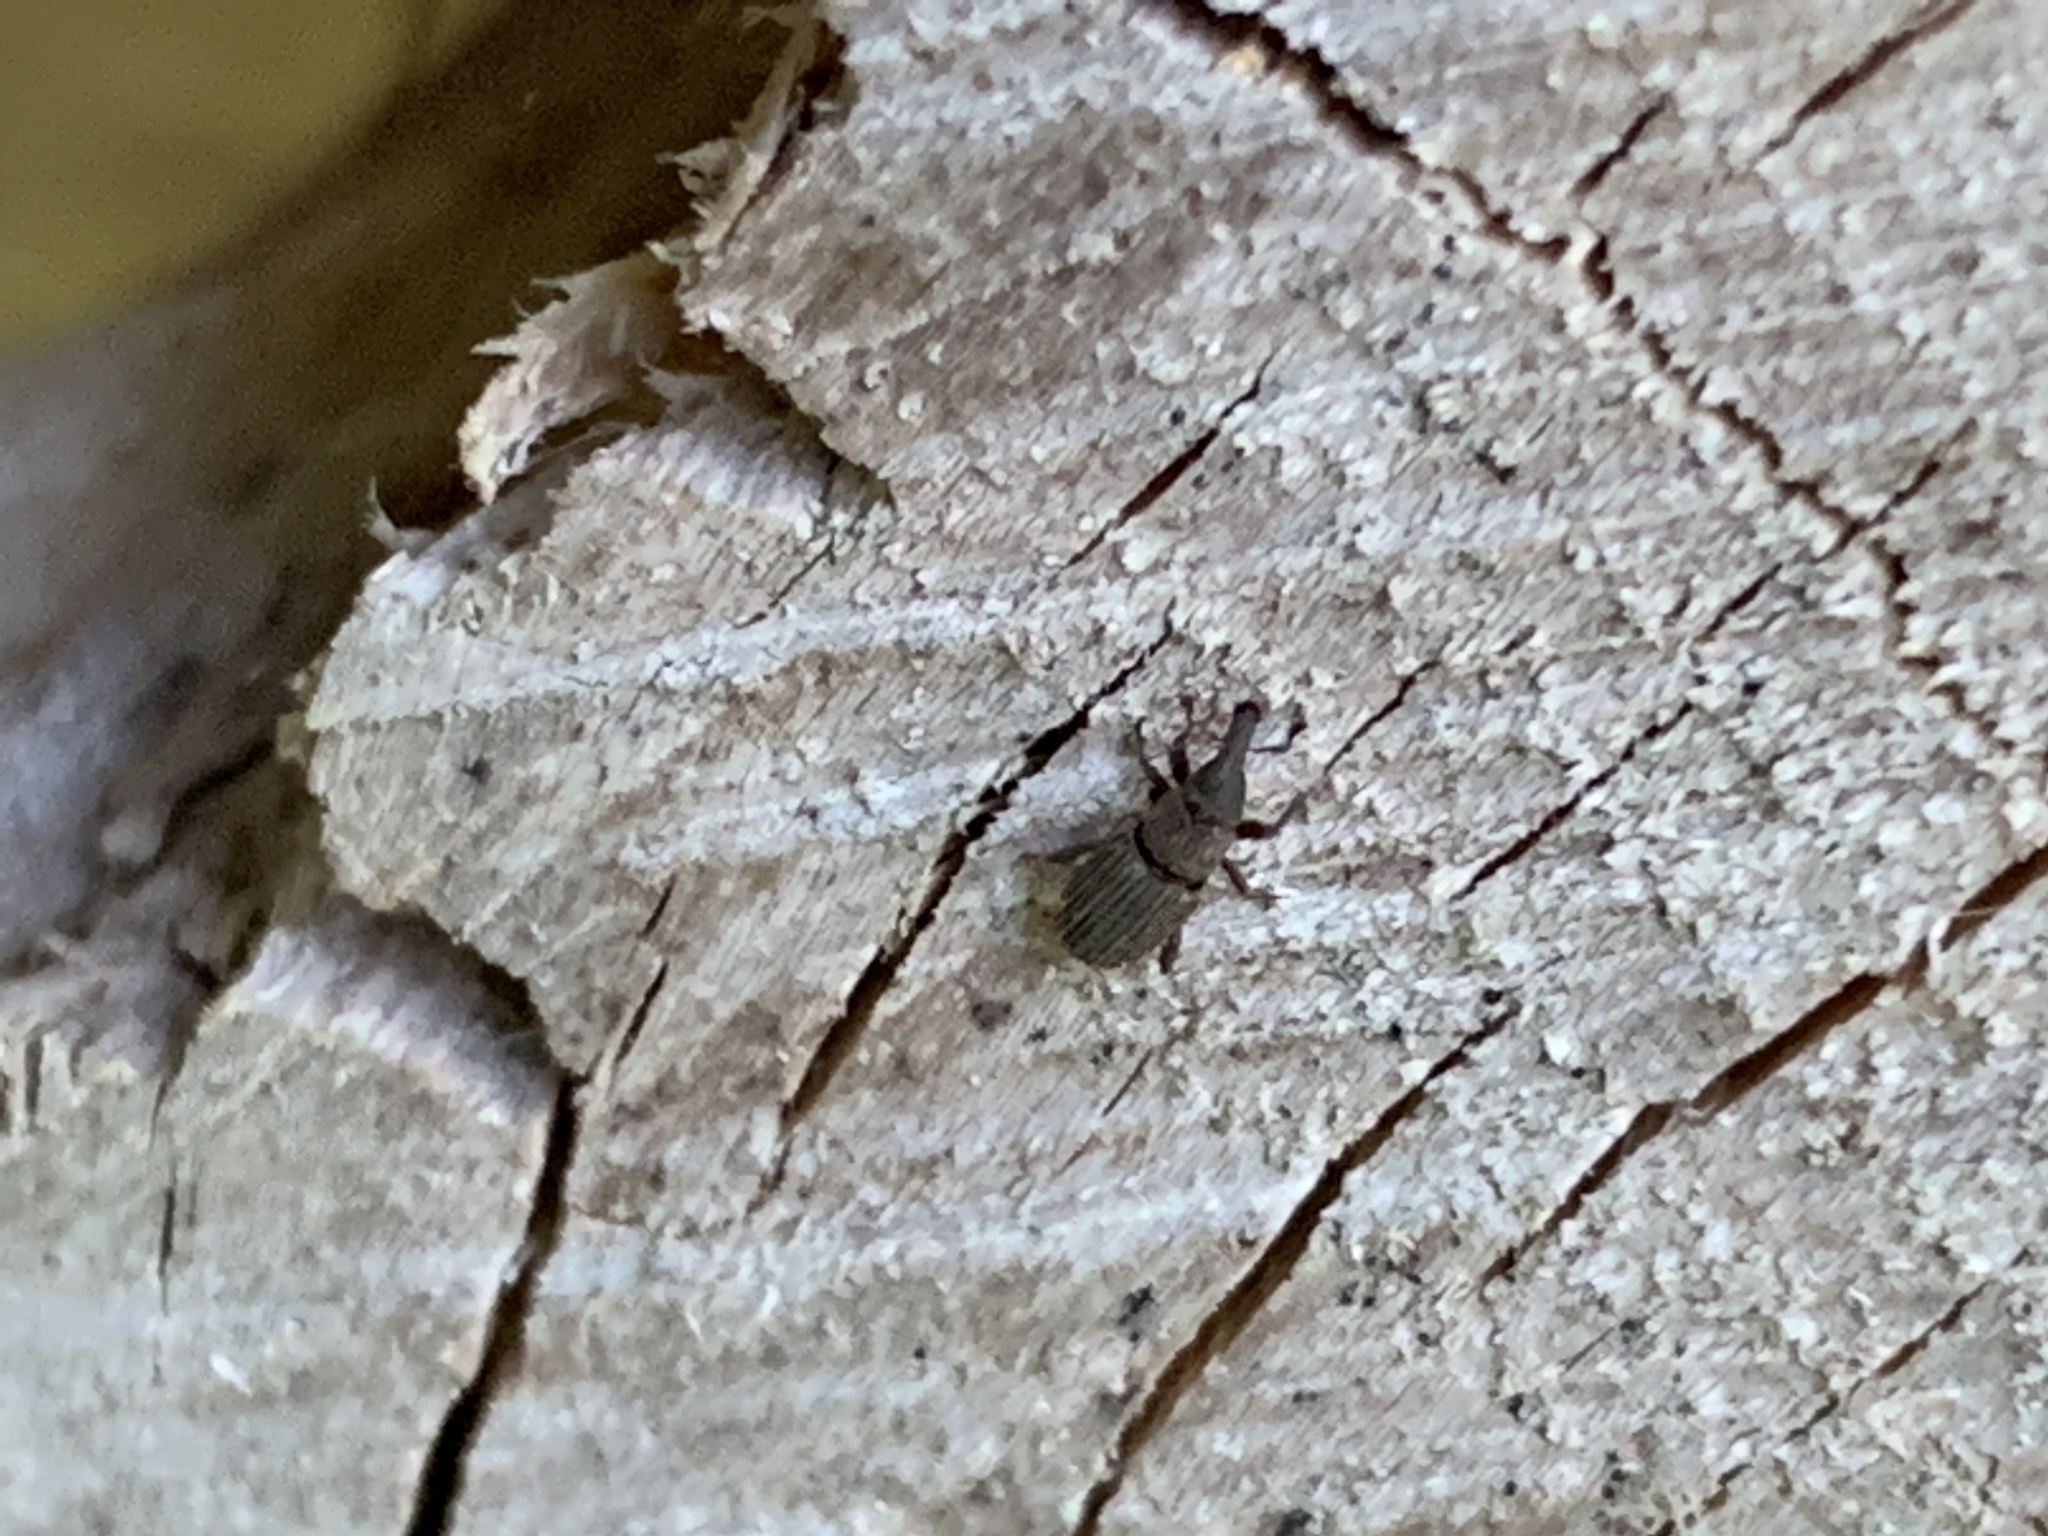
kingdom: Animalia
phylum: Arthropoda
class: Insecta
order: Coleoptera
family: Dryophthoridae
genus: Dryophthorus
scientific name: Dryophthorus americanus
